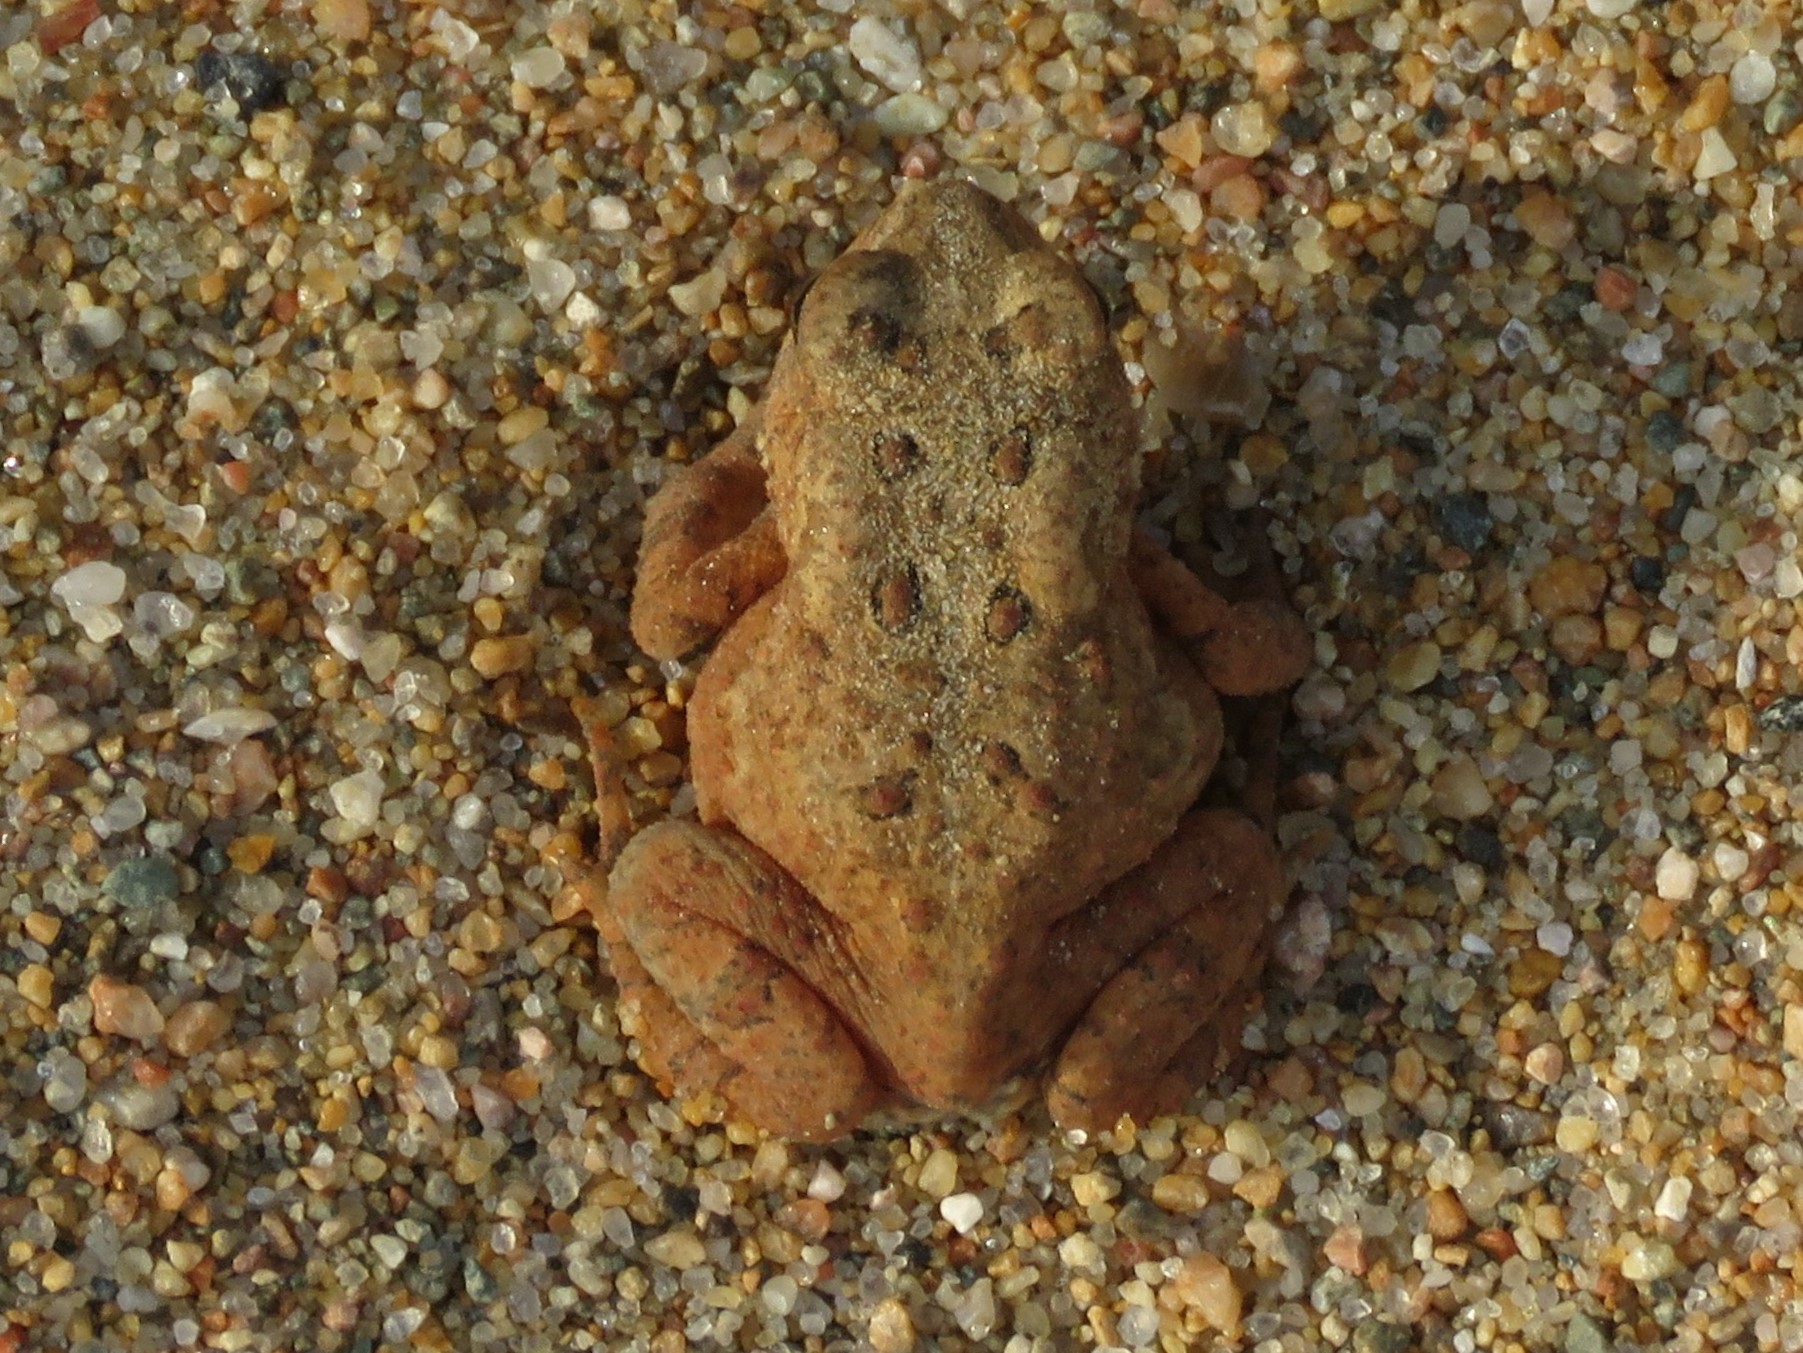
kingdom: Animalia
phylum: Chordata
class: Amphibia
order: Anura
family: Bufonidae
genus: Anaxyrus
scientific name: Anaxyrus americanus
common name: American toad
